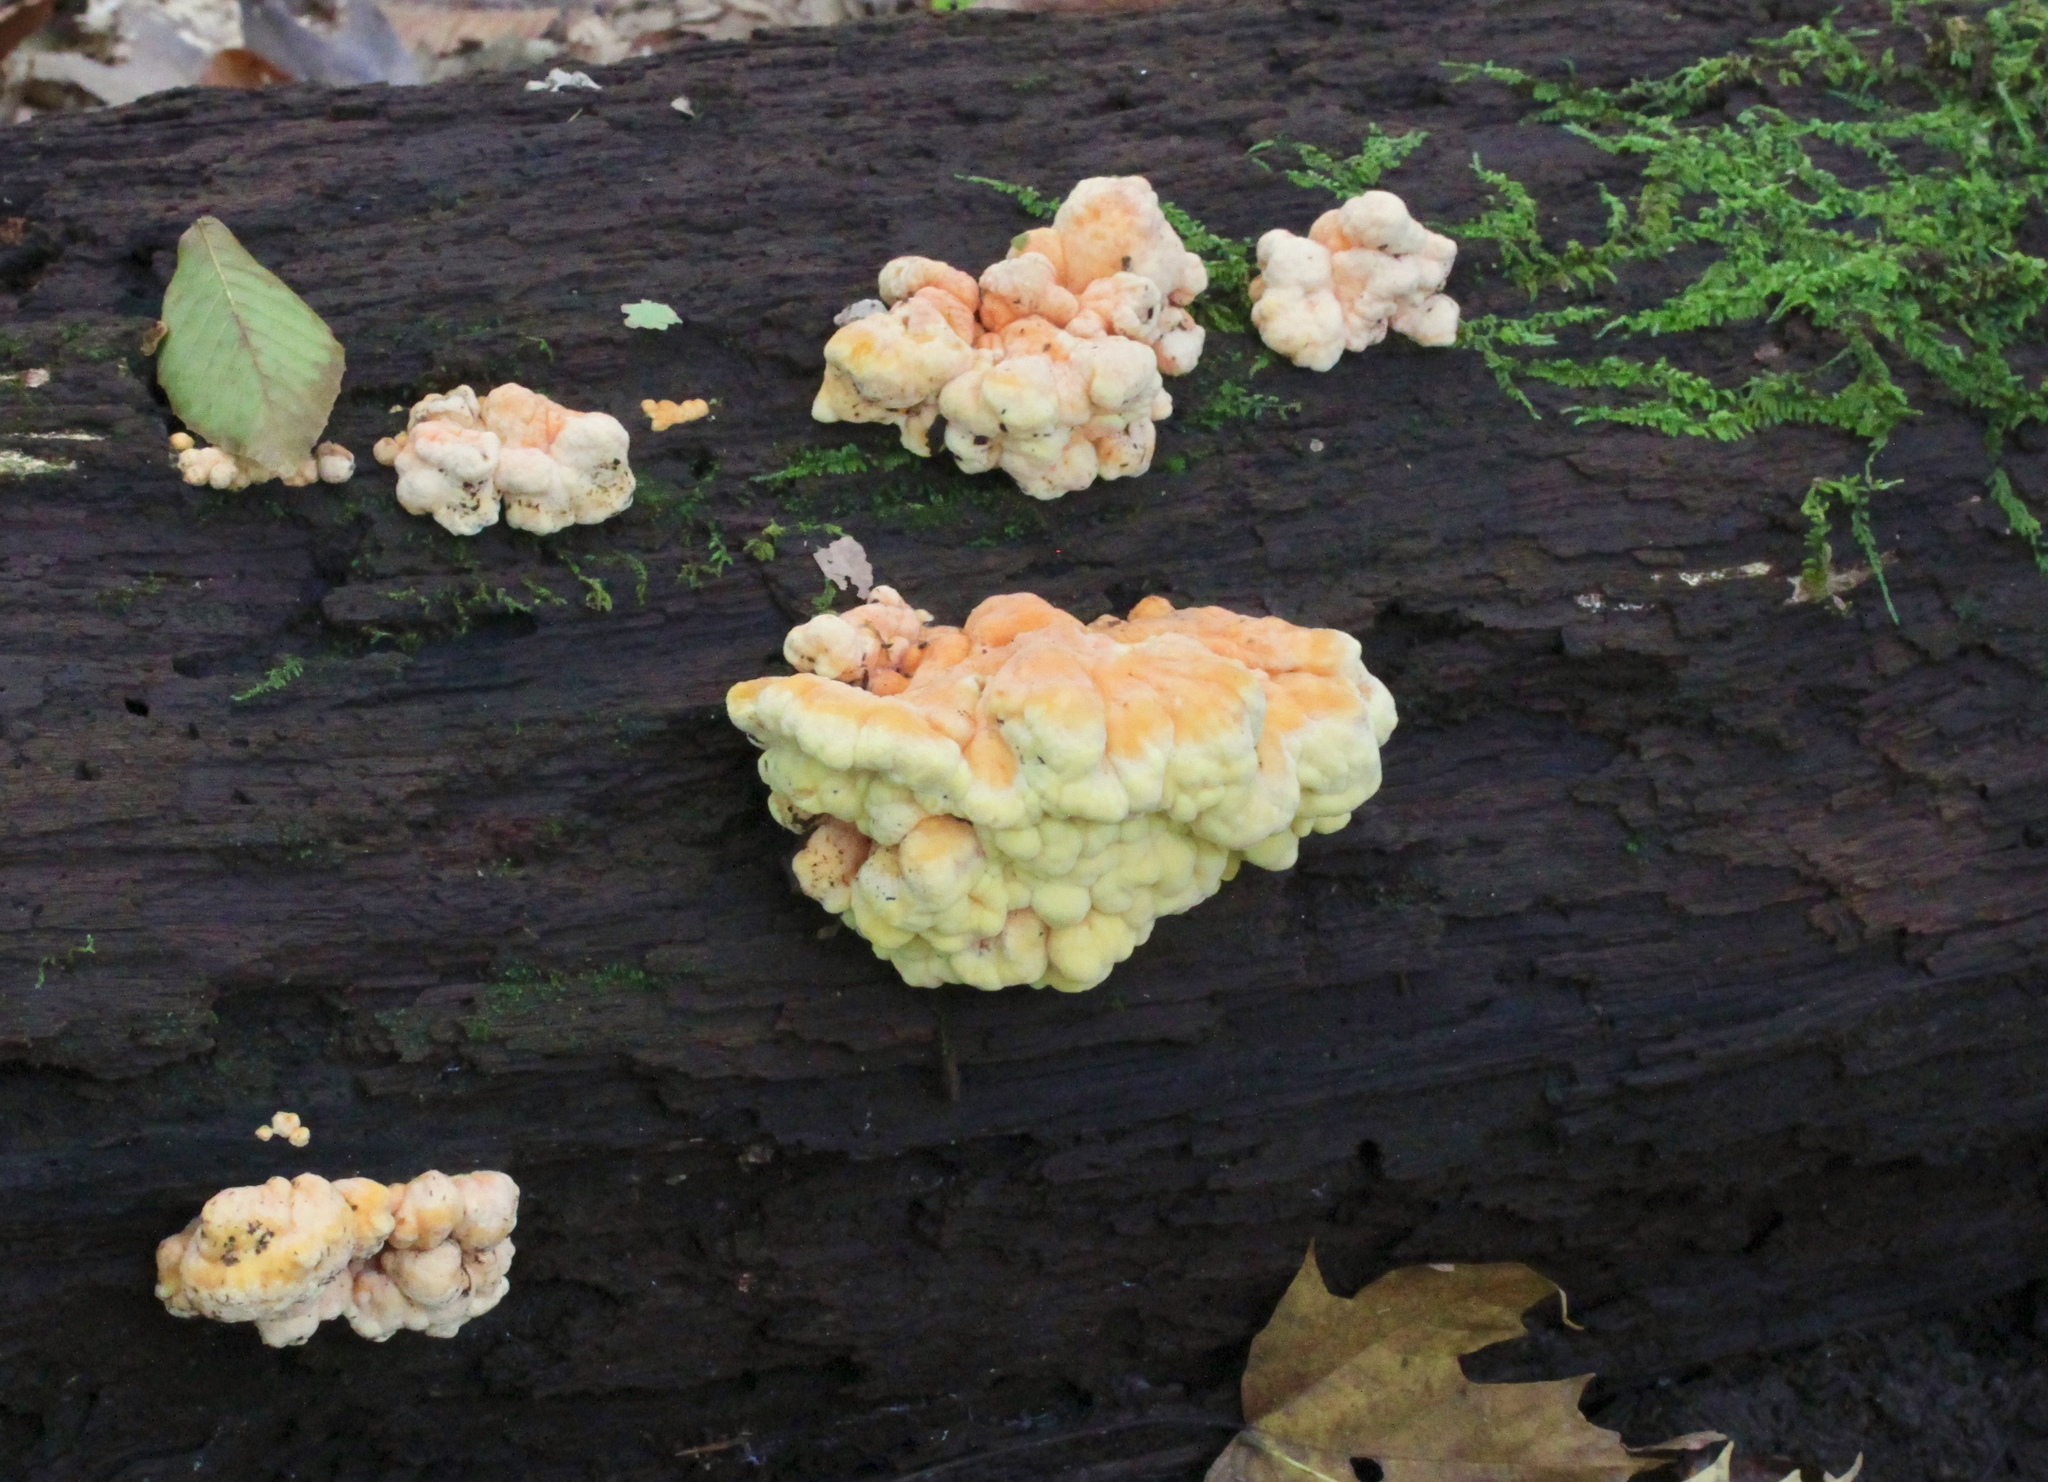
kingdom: Fungi
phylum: Basidiomycota
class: Agaricomycetes
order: Polyporales
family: Laetiporaceae
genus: Laetiporus
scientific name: Laetiporus sulphureus
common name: Chicken of the woods
